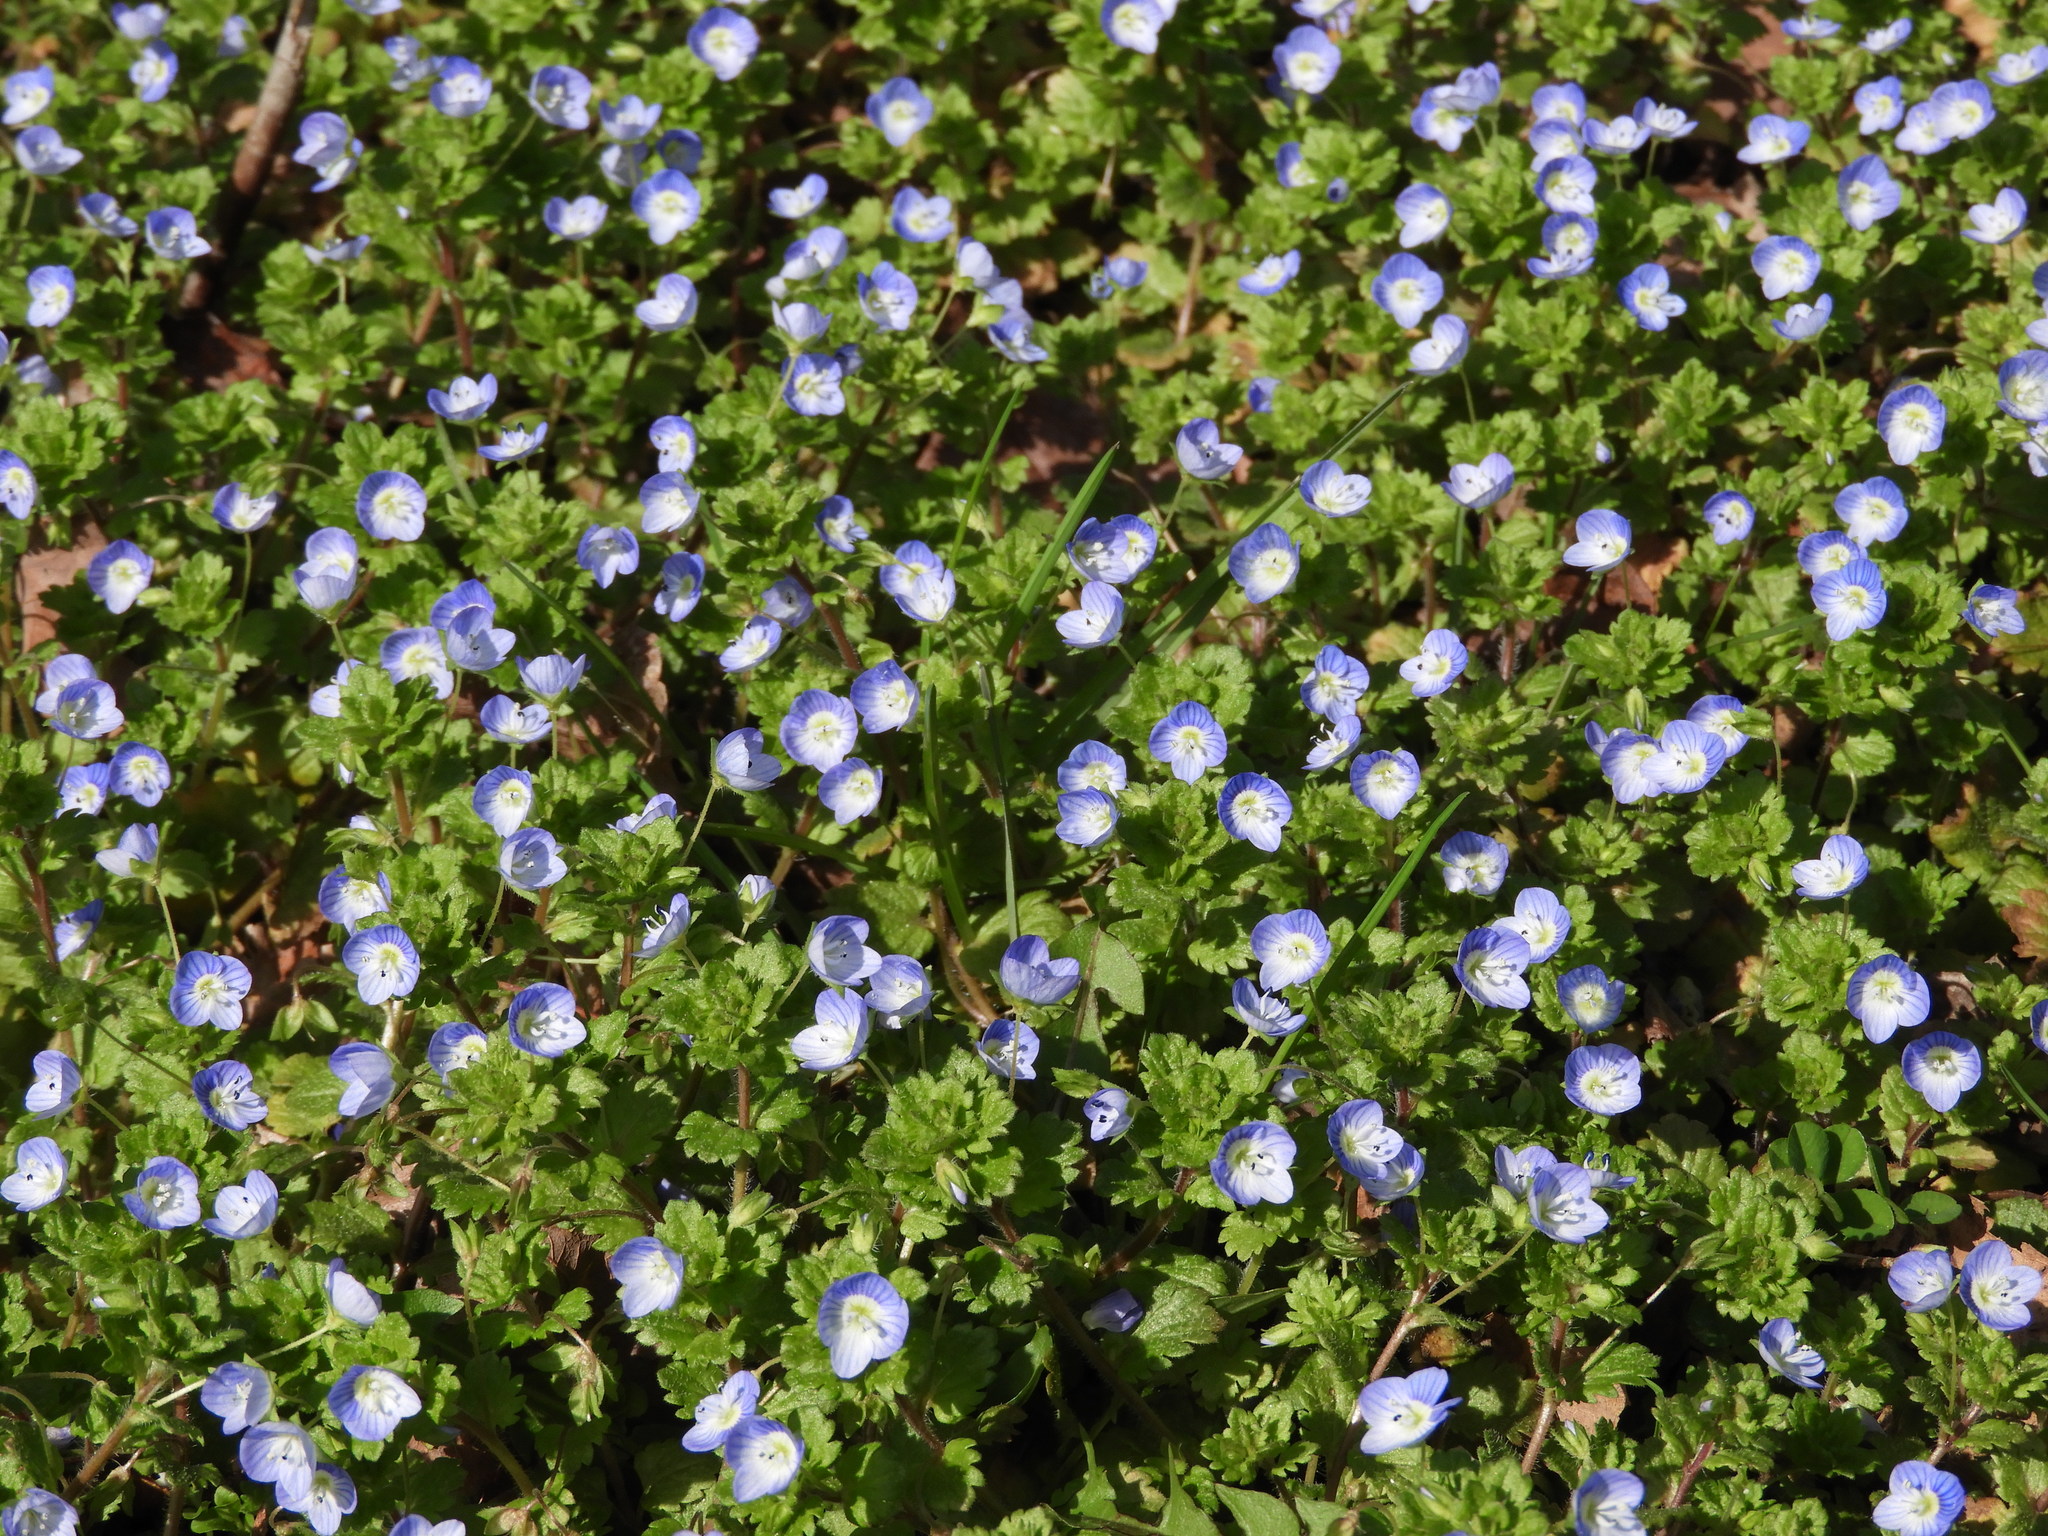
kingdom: Plantae
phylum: Tracheophyta
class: Magnoliopsida
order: Lamiales
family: Plantaginaceae
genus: Veronica
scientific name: Veronica persica
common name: Common field-speedwell
